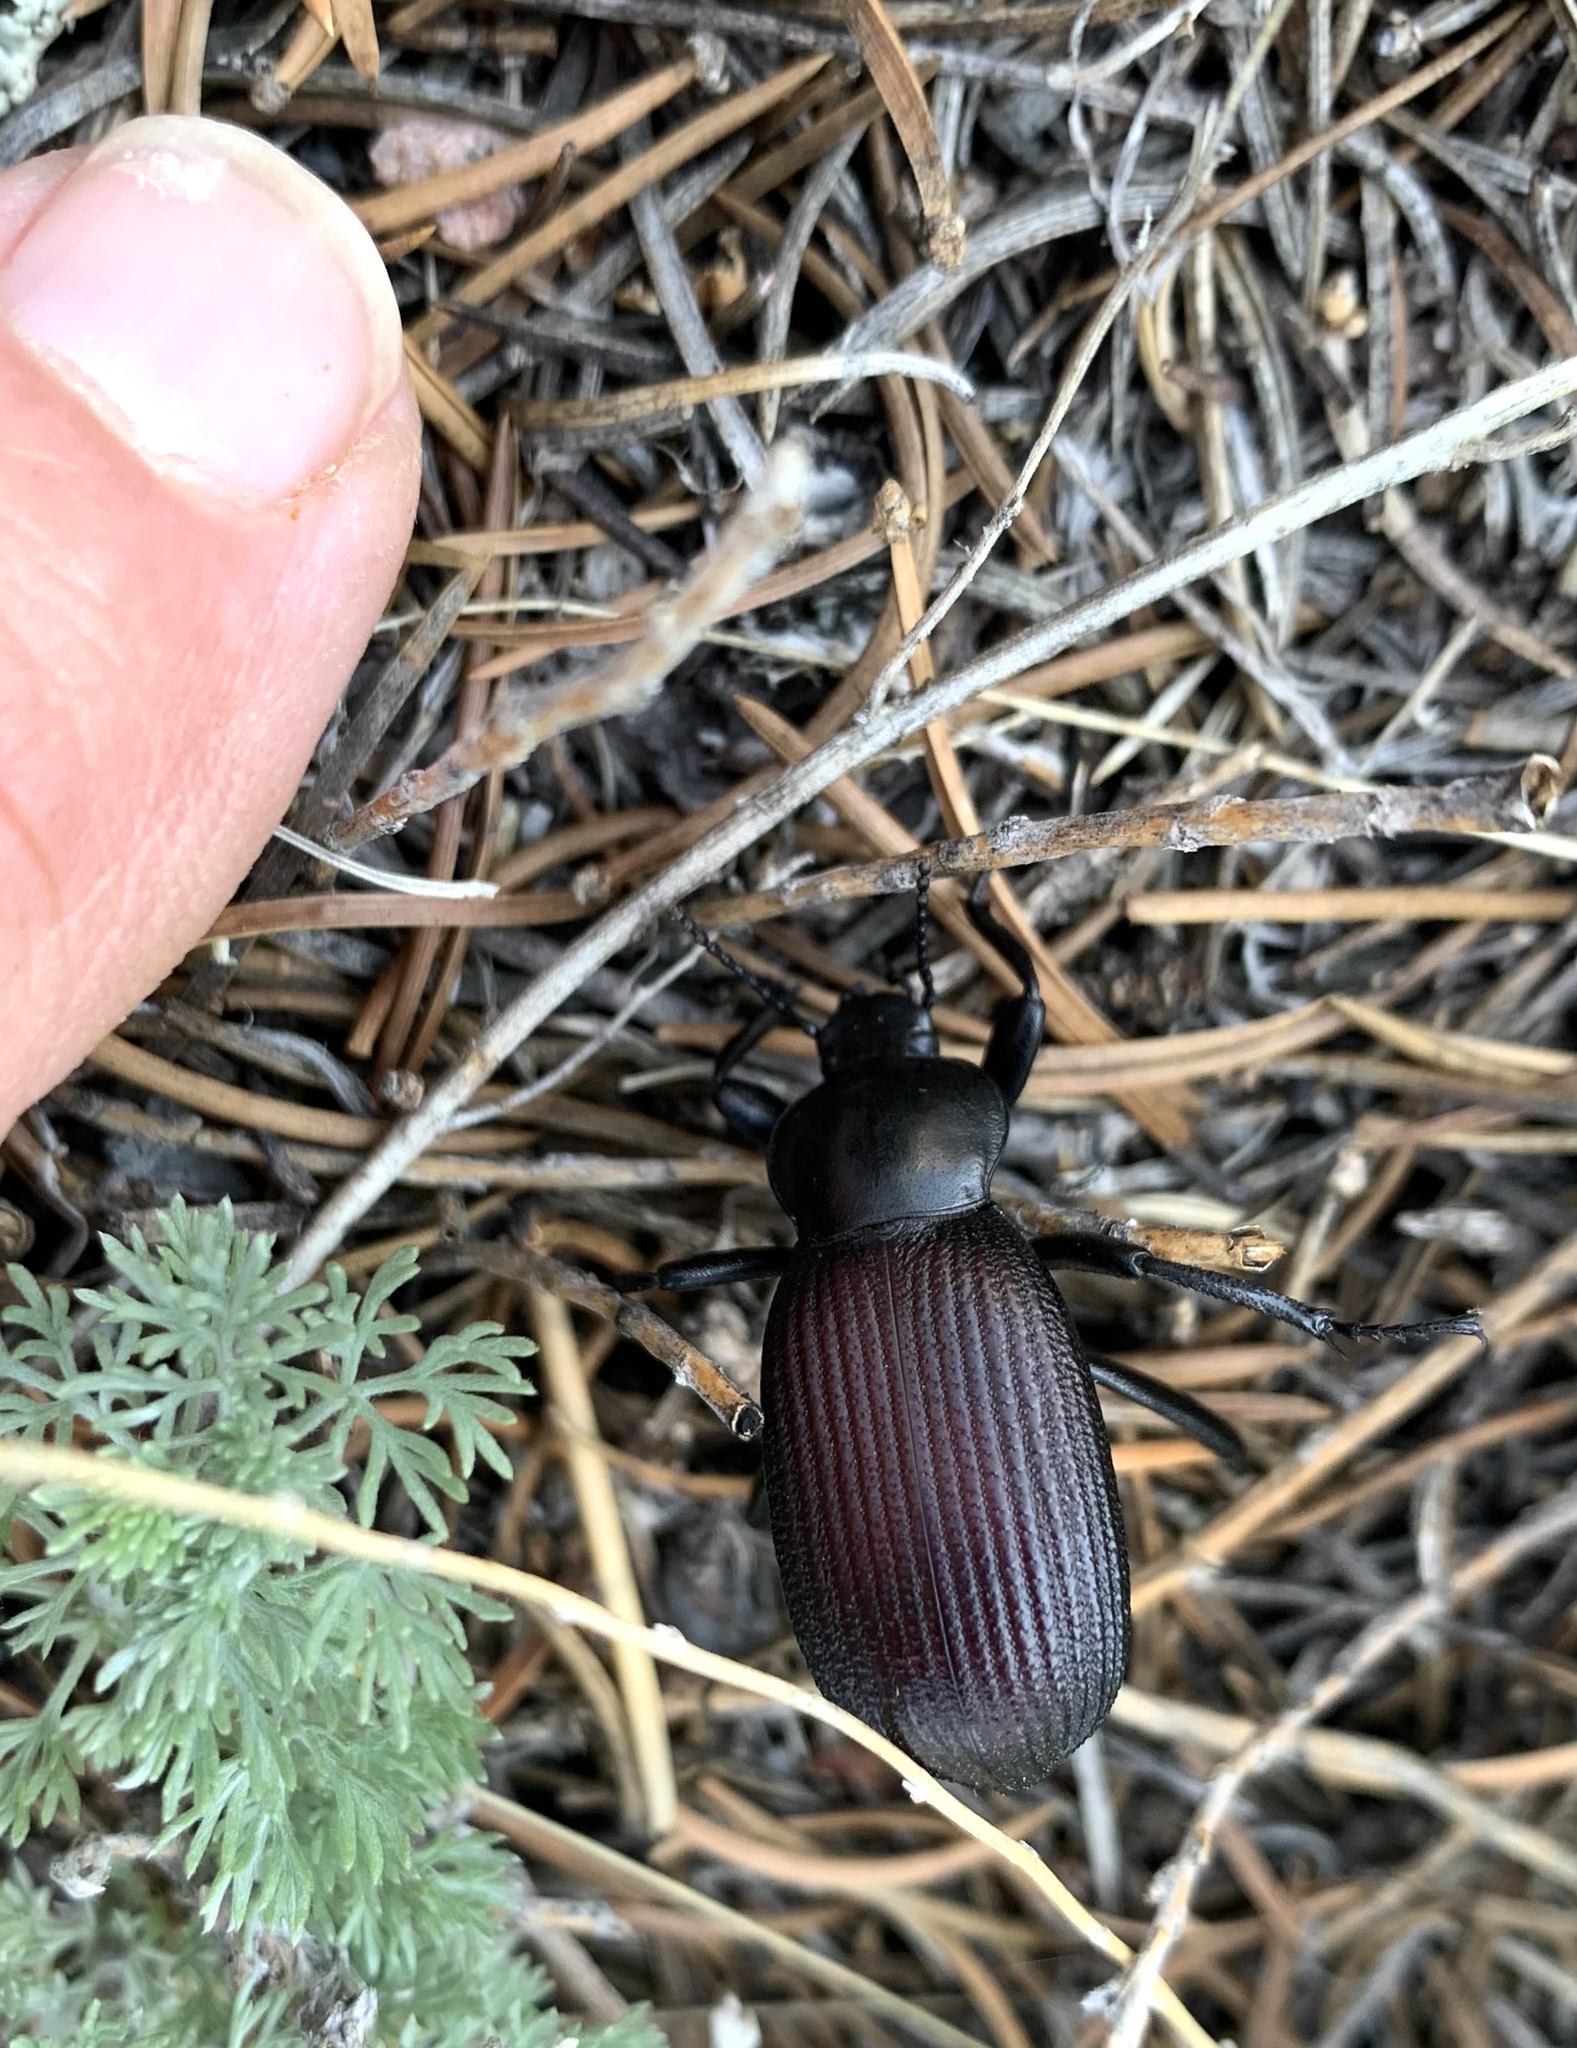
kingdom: Animalia
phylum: Arthropoda
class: Insecta
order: Coleoptera
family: Tenebrionidae
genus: Eleodes
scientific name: Eleodes obscura
